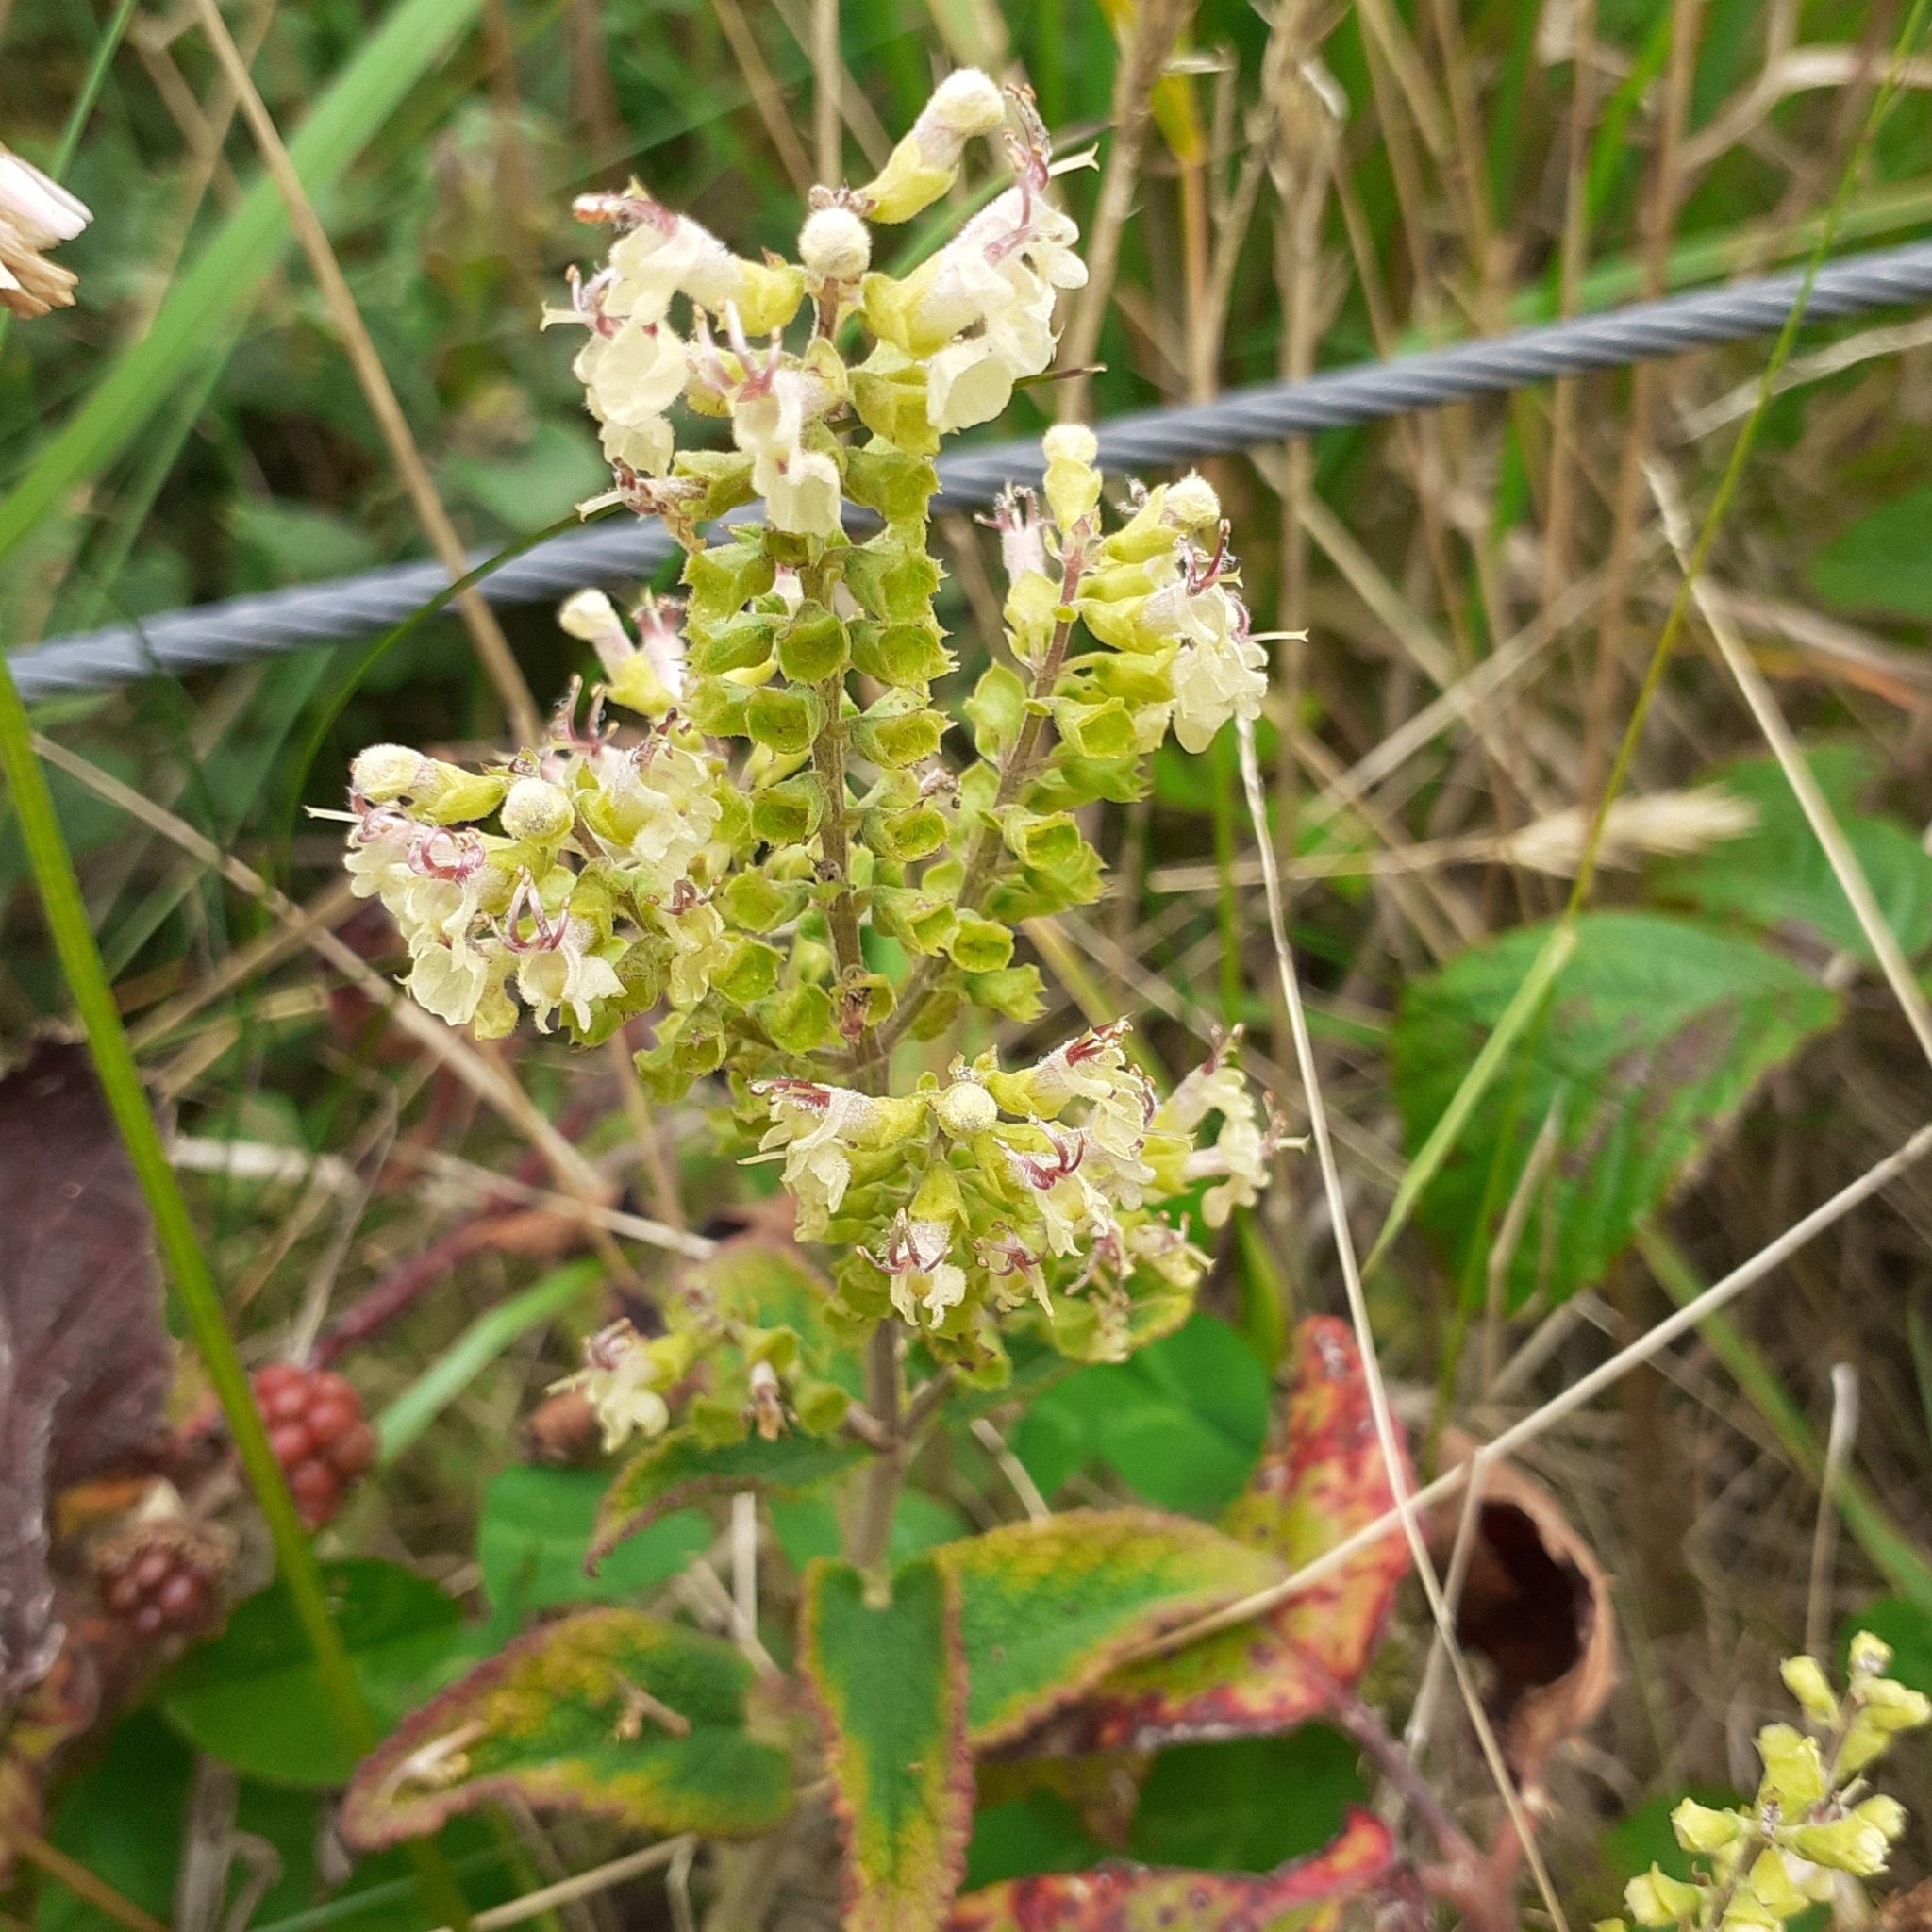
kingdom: Plantae
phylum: Tracheophyta
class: Magnoliopsida
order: Lamiales
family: Lamiaceae
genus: Teucrium
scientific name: Teucrium scorodonia
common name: Woodland germander
